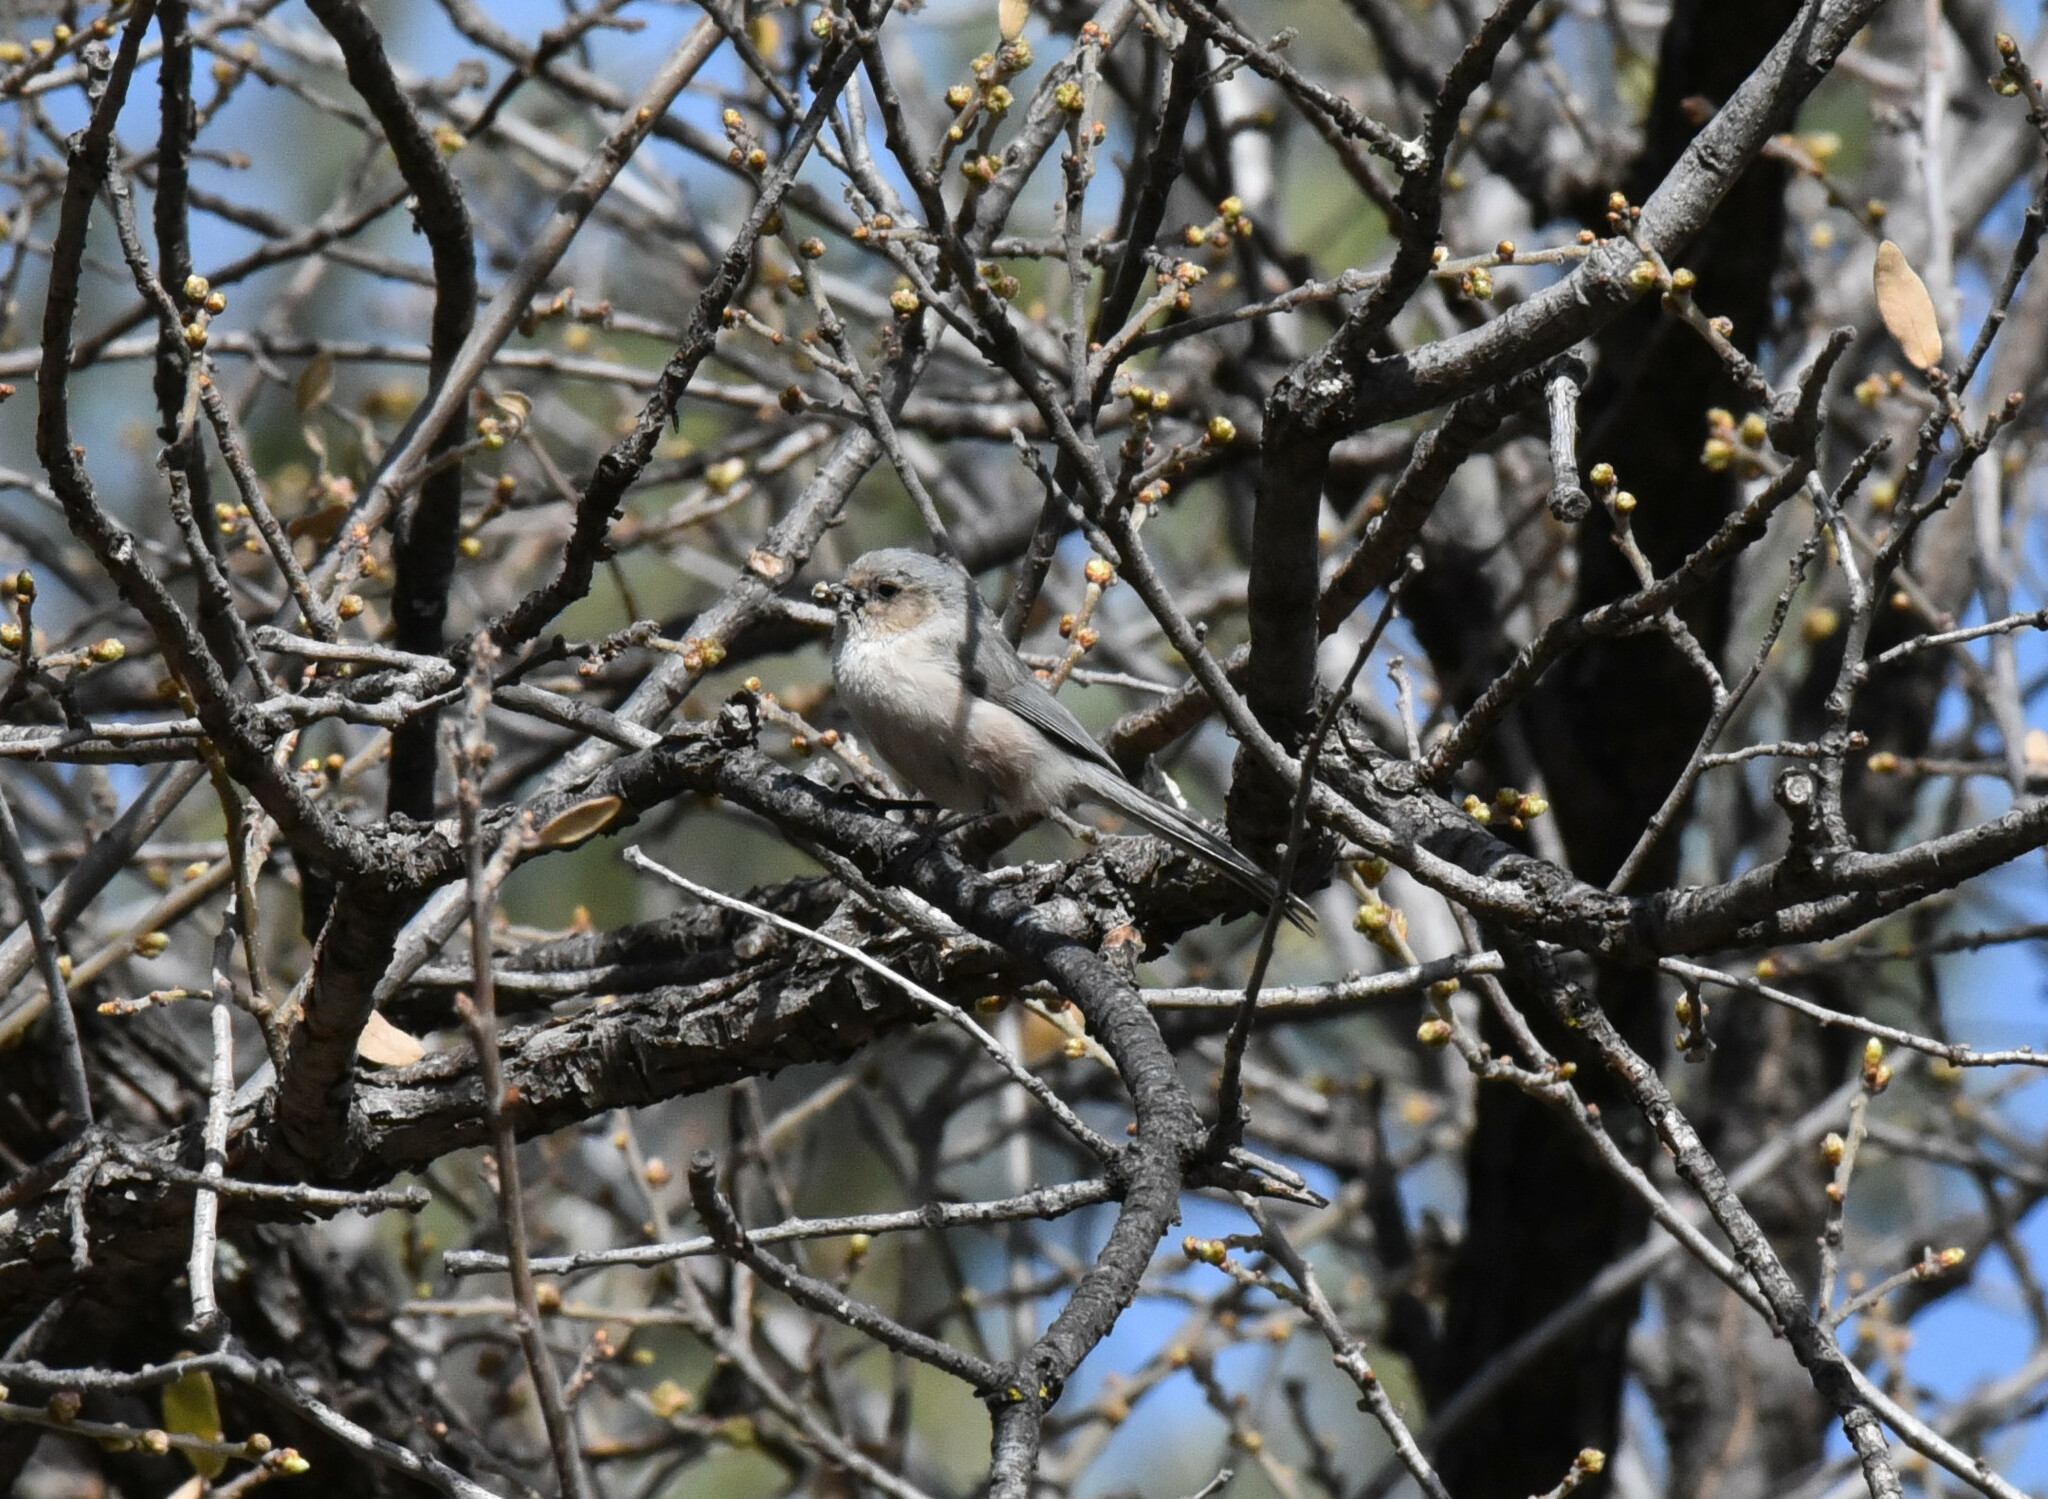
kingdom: Animalia
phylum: Chordata
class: Aves
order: Passeriformes
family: Aegithalidae
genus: Psaltriparus
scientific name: Psaltriparus minimus
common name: American bushtit
